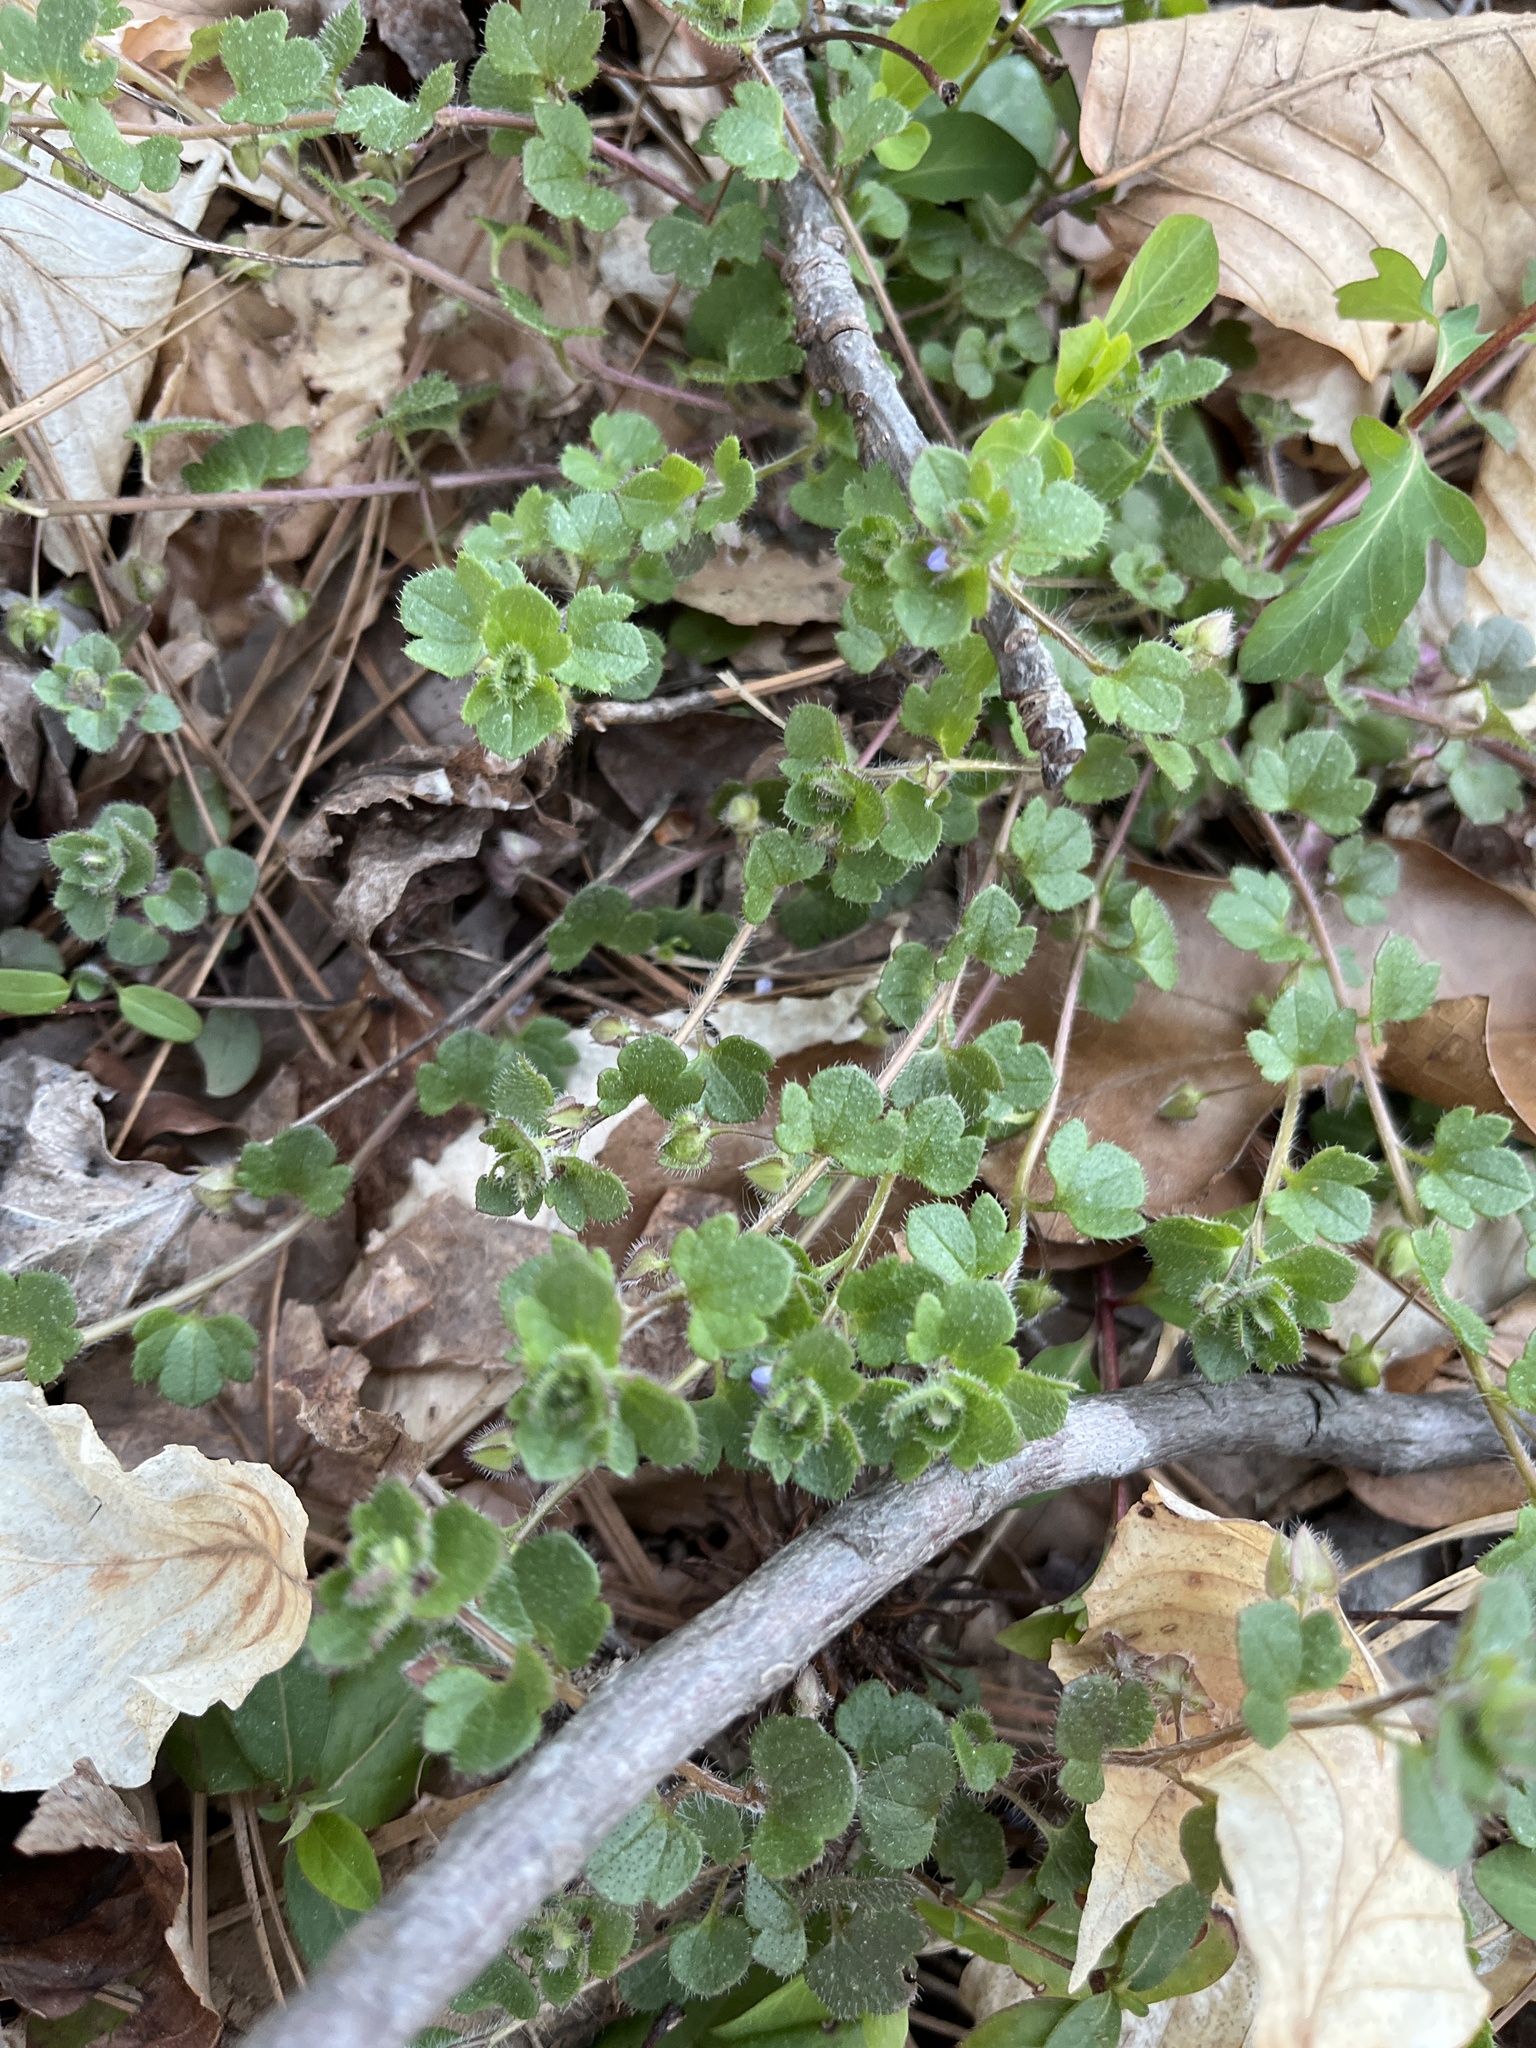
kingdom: Plantae
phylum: Tracheophyta
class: Magnoliopsida
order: Lamiales
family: Plantaginaceae
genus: Veronica
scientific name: Veronica hederifolia
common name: Ivy-leaved speedwell
